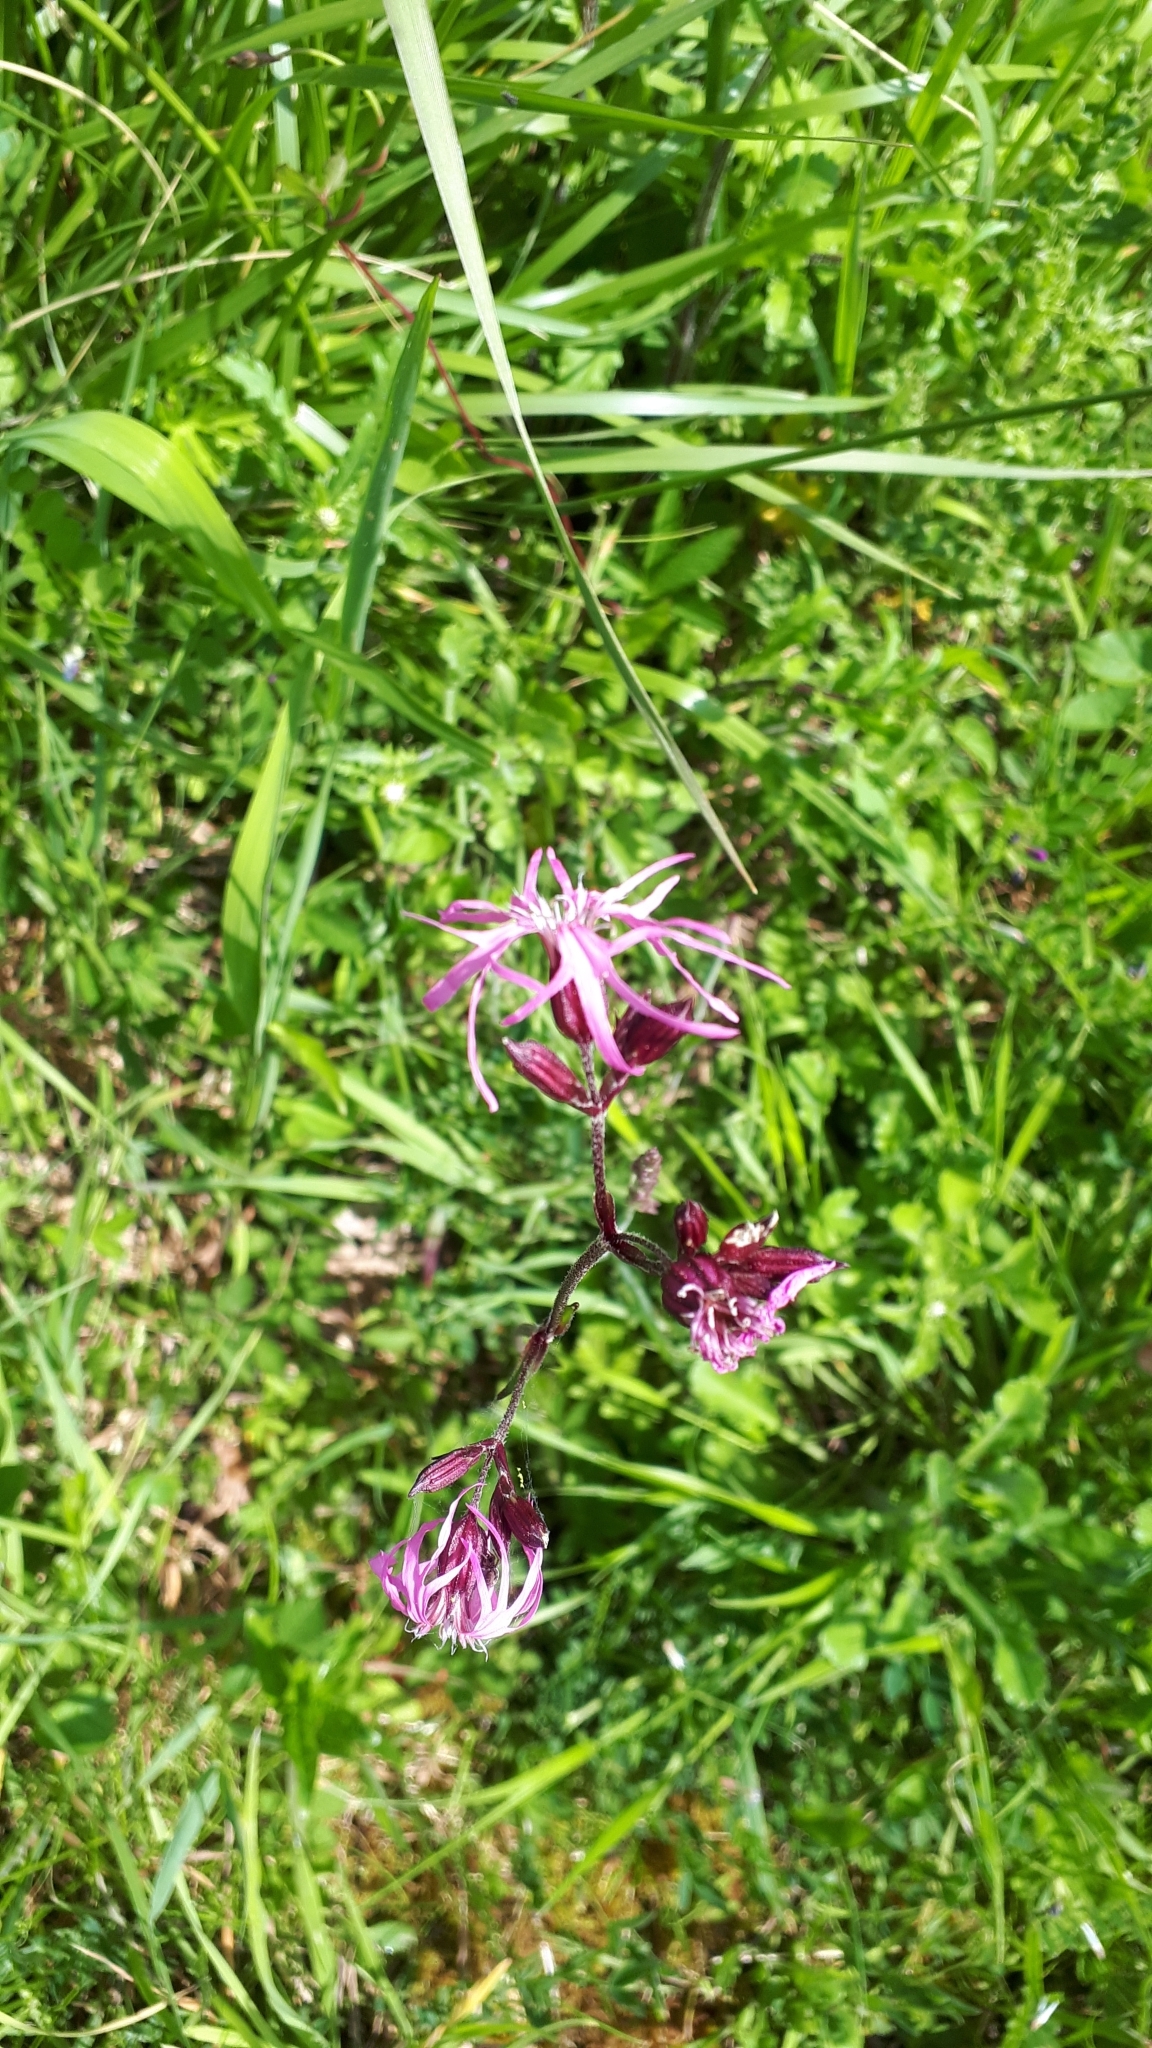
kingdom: Plantae
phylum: Tracheophyta
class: Magnoliopsida
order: Caryophyllales
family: Caryophyllaceae
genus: Silene
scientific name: Silene flos-cuculi
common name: Ragged-robin
